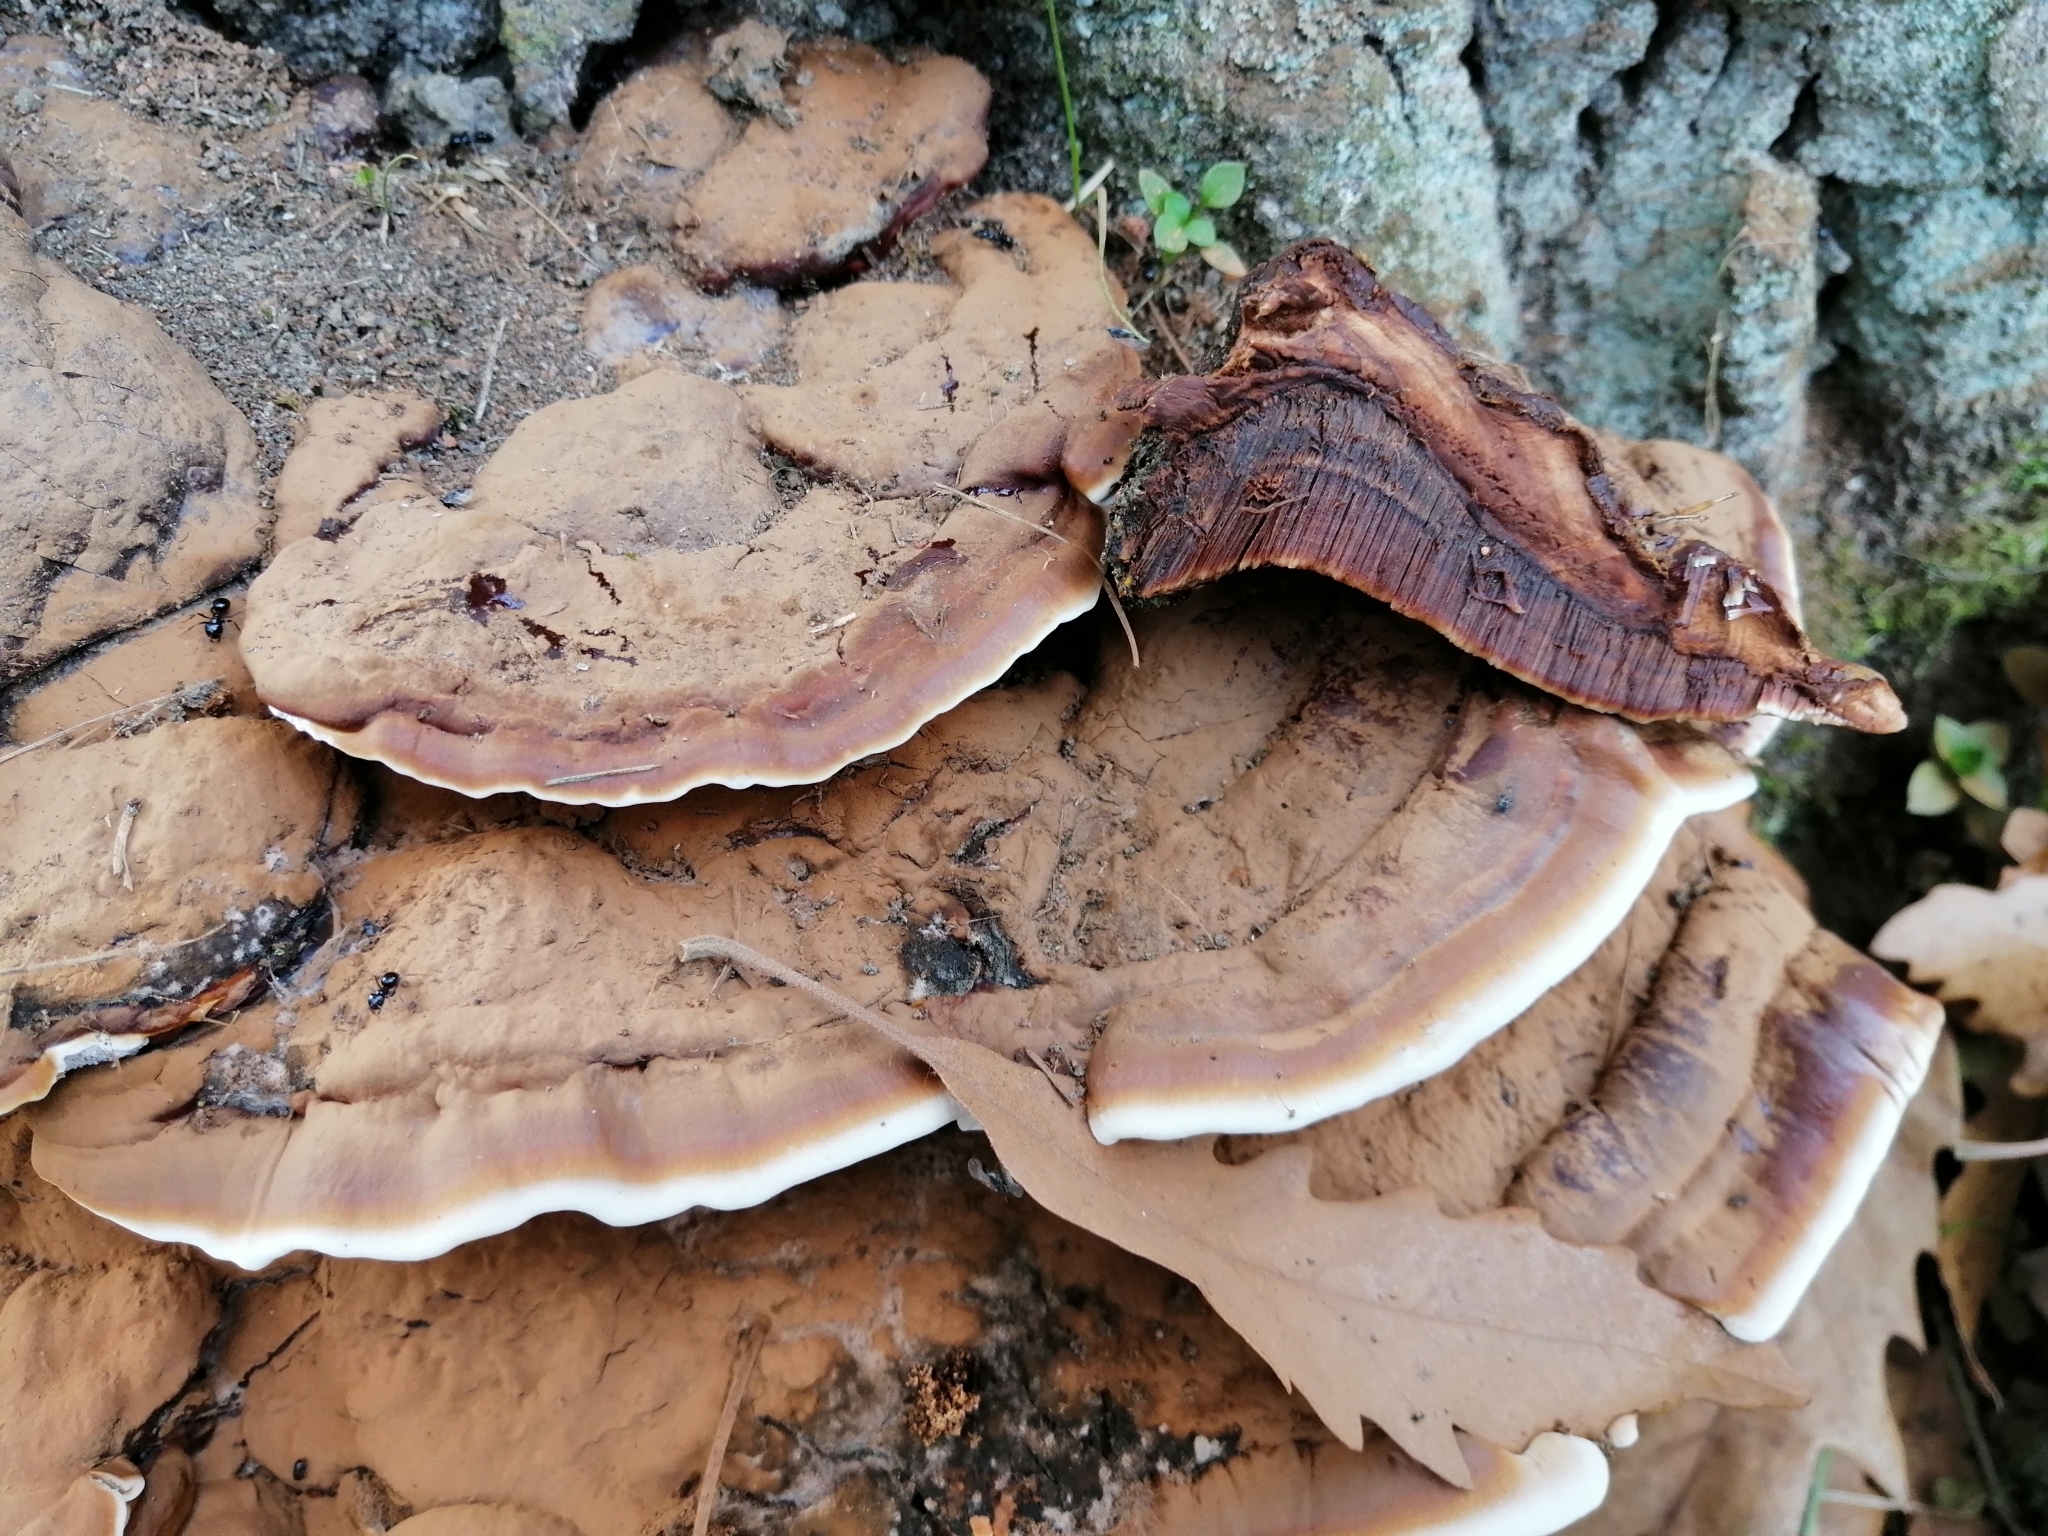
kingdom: Fungi
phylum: Basidiomycota
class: Agaricomycetes
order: Polyporales
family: Polyporaceae
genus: Ganoderma
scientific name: Ganoderma applanatum
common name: Artist's bracket
